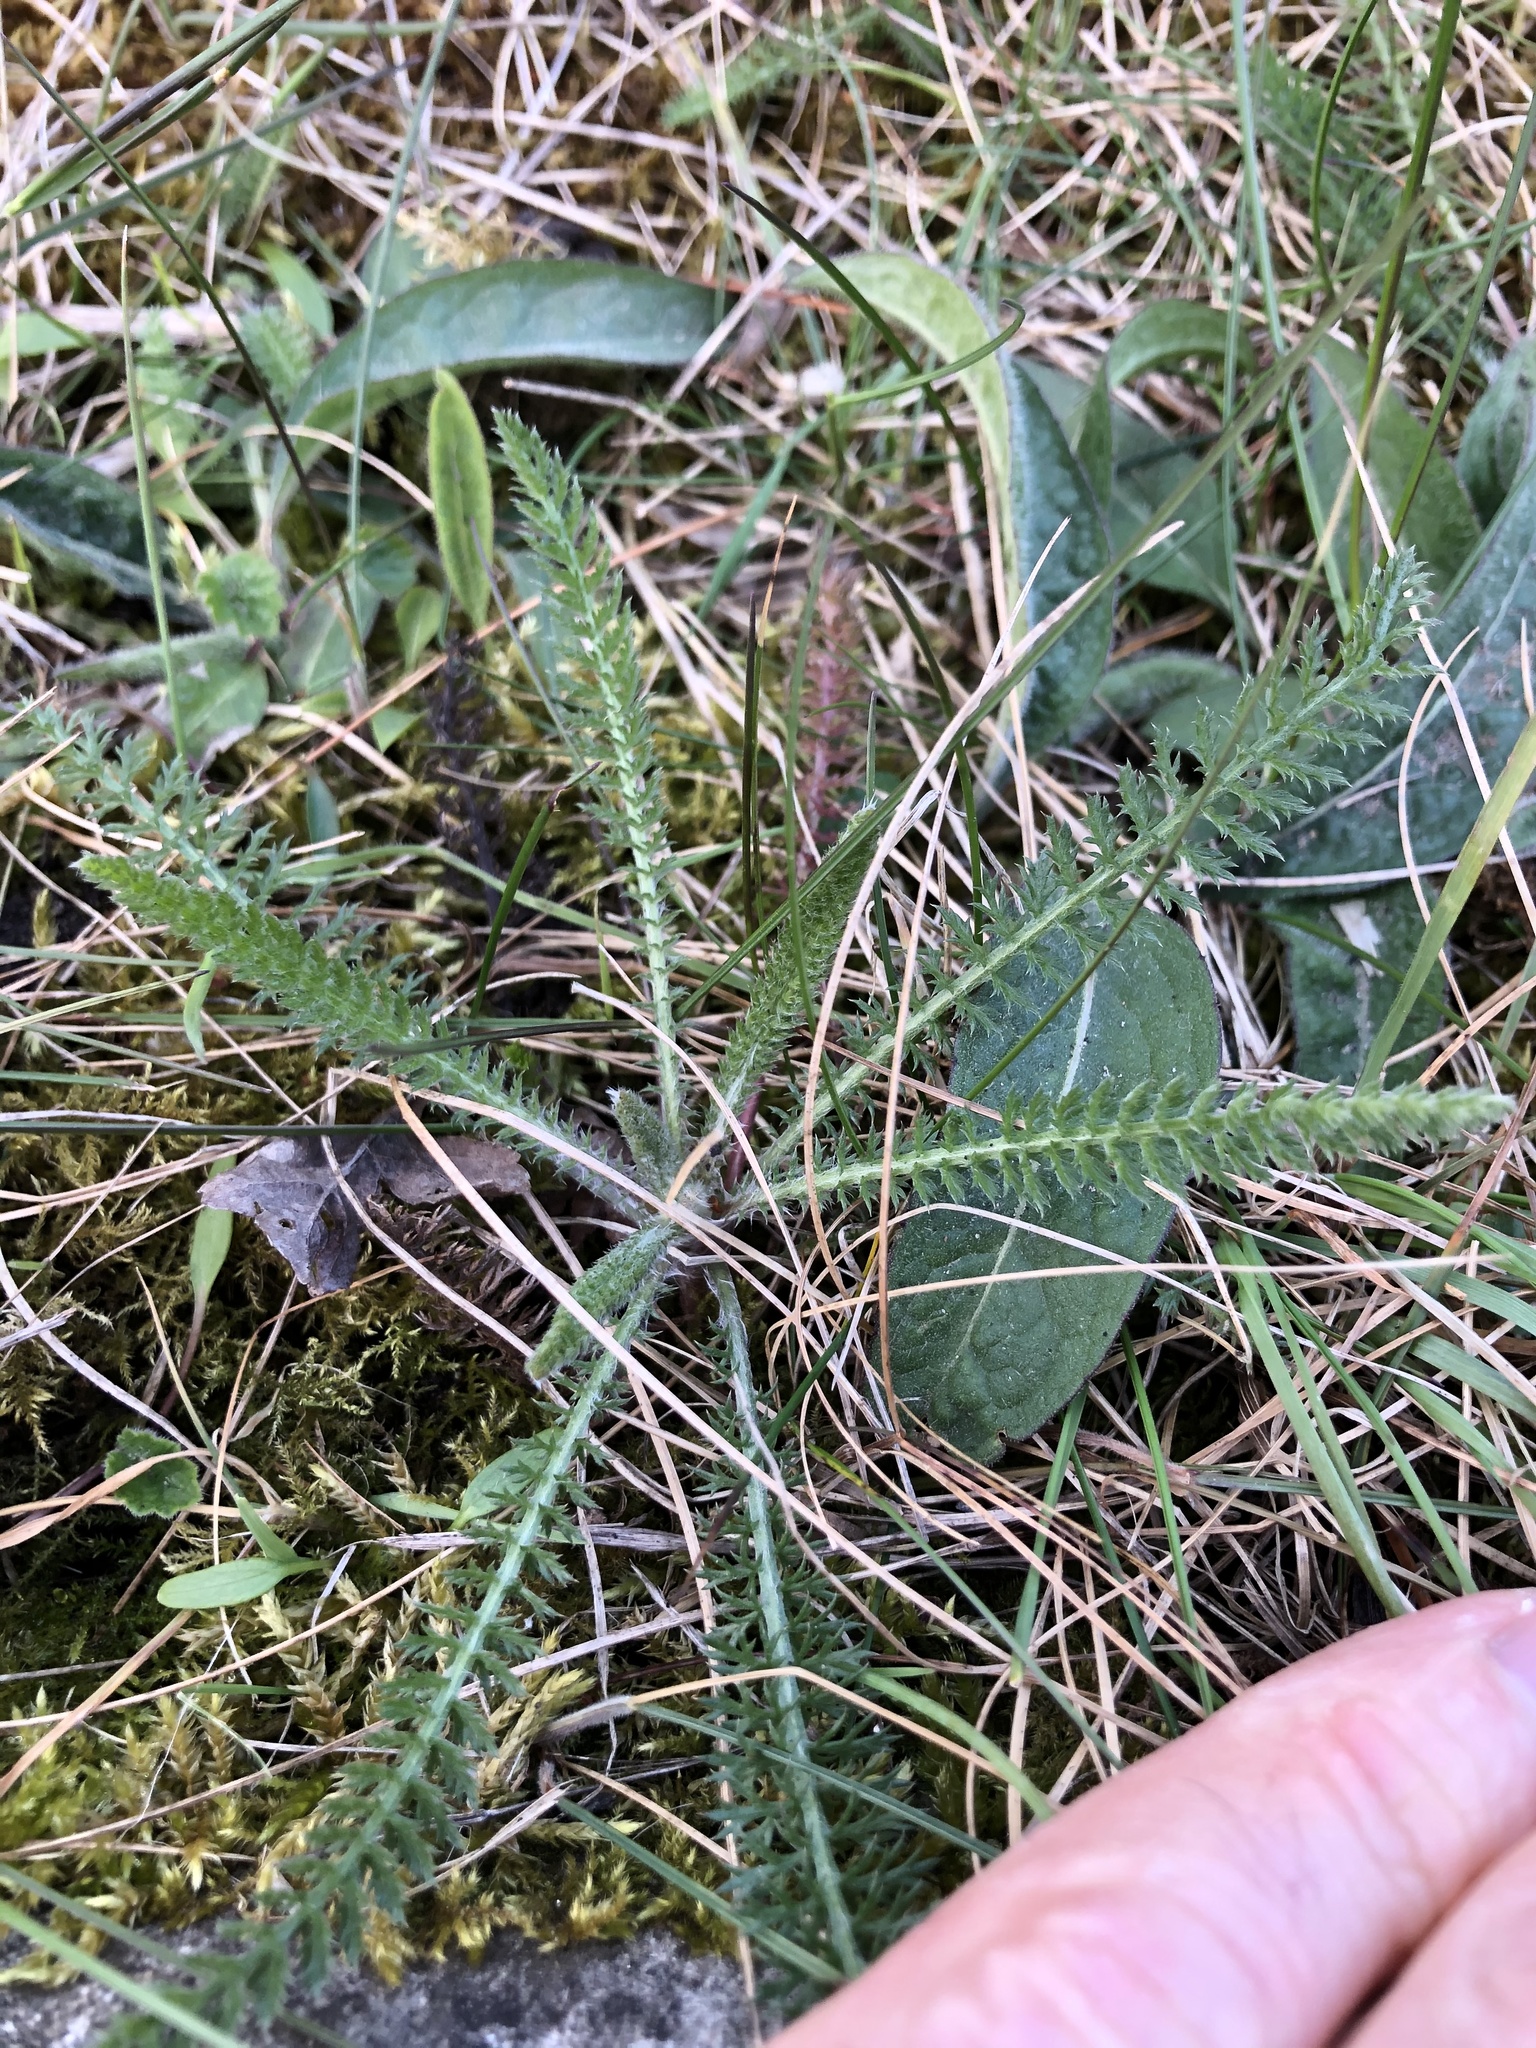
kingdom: Plantae
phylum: Tracheophyta
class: Magnoliopsida
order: Asterales
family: Asteraceae
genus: Achillea
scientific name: Achillea millefolium
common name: Yarrow
